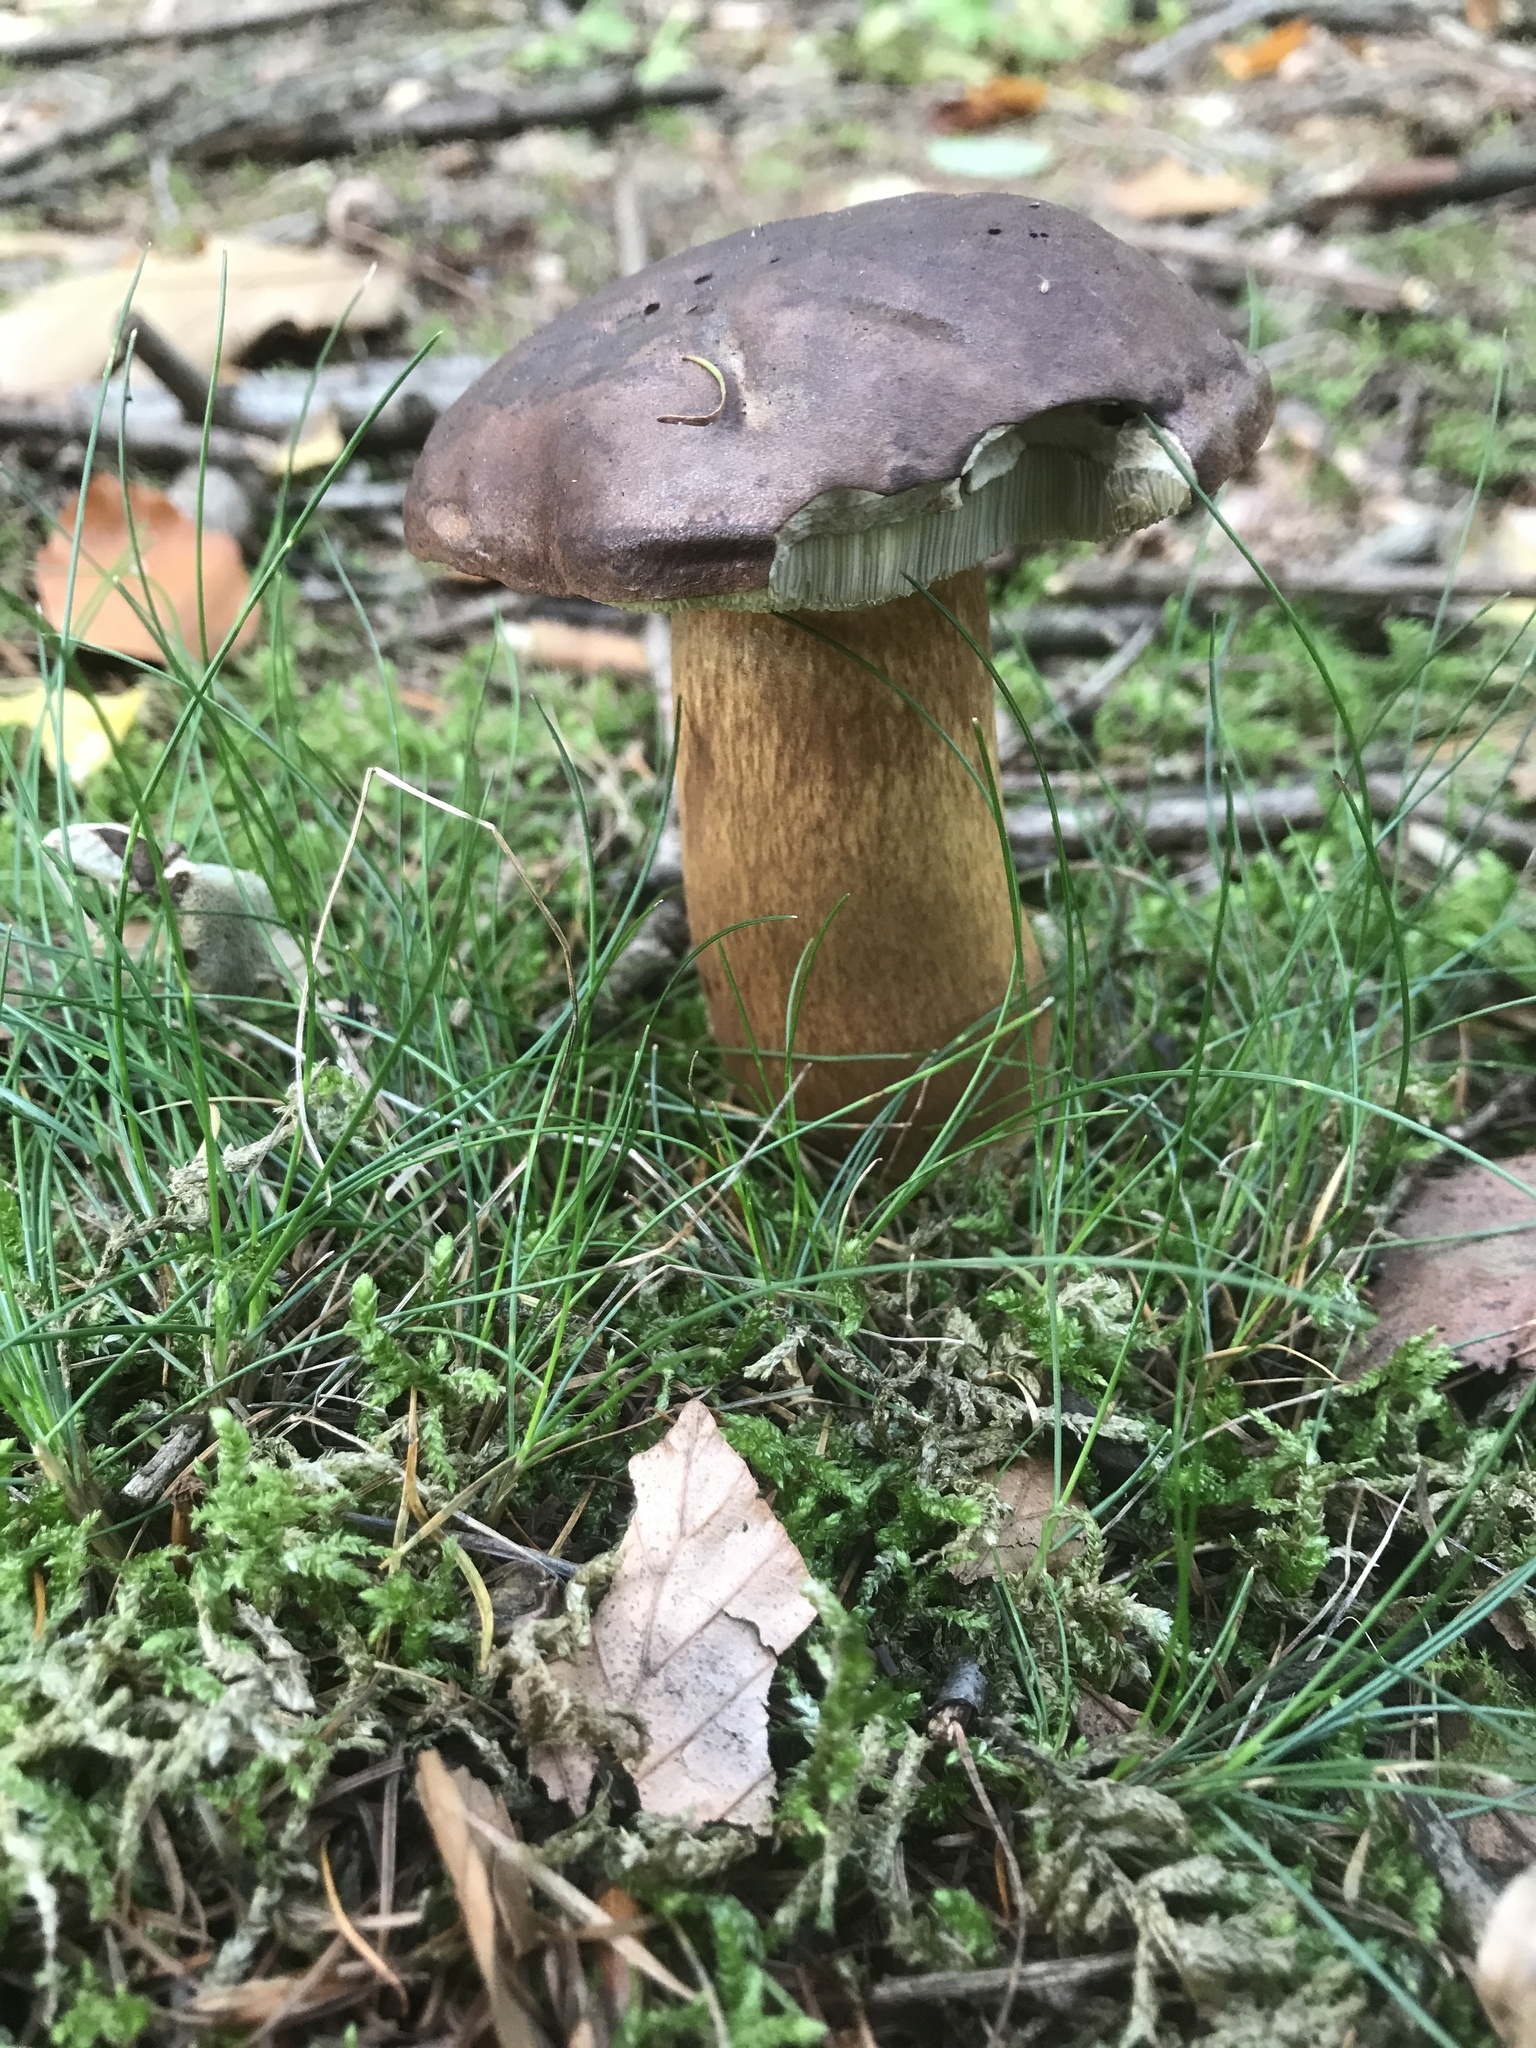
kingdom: Fungi
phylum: Basidiomycota
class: Agaricomycetes
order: Boletales
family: Boletaceae
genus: Imleria
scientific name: Imleria badia
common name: Bay bolete
